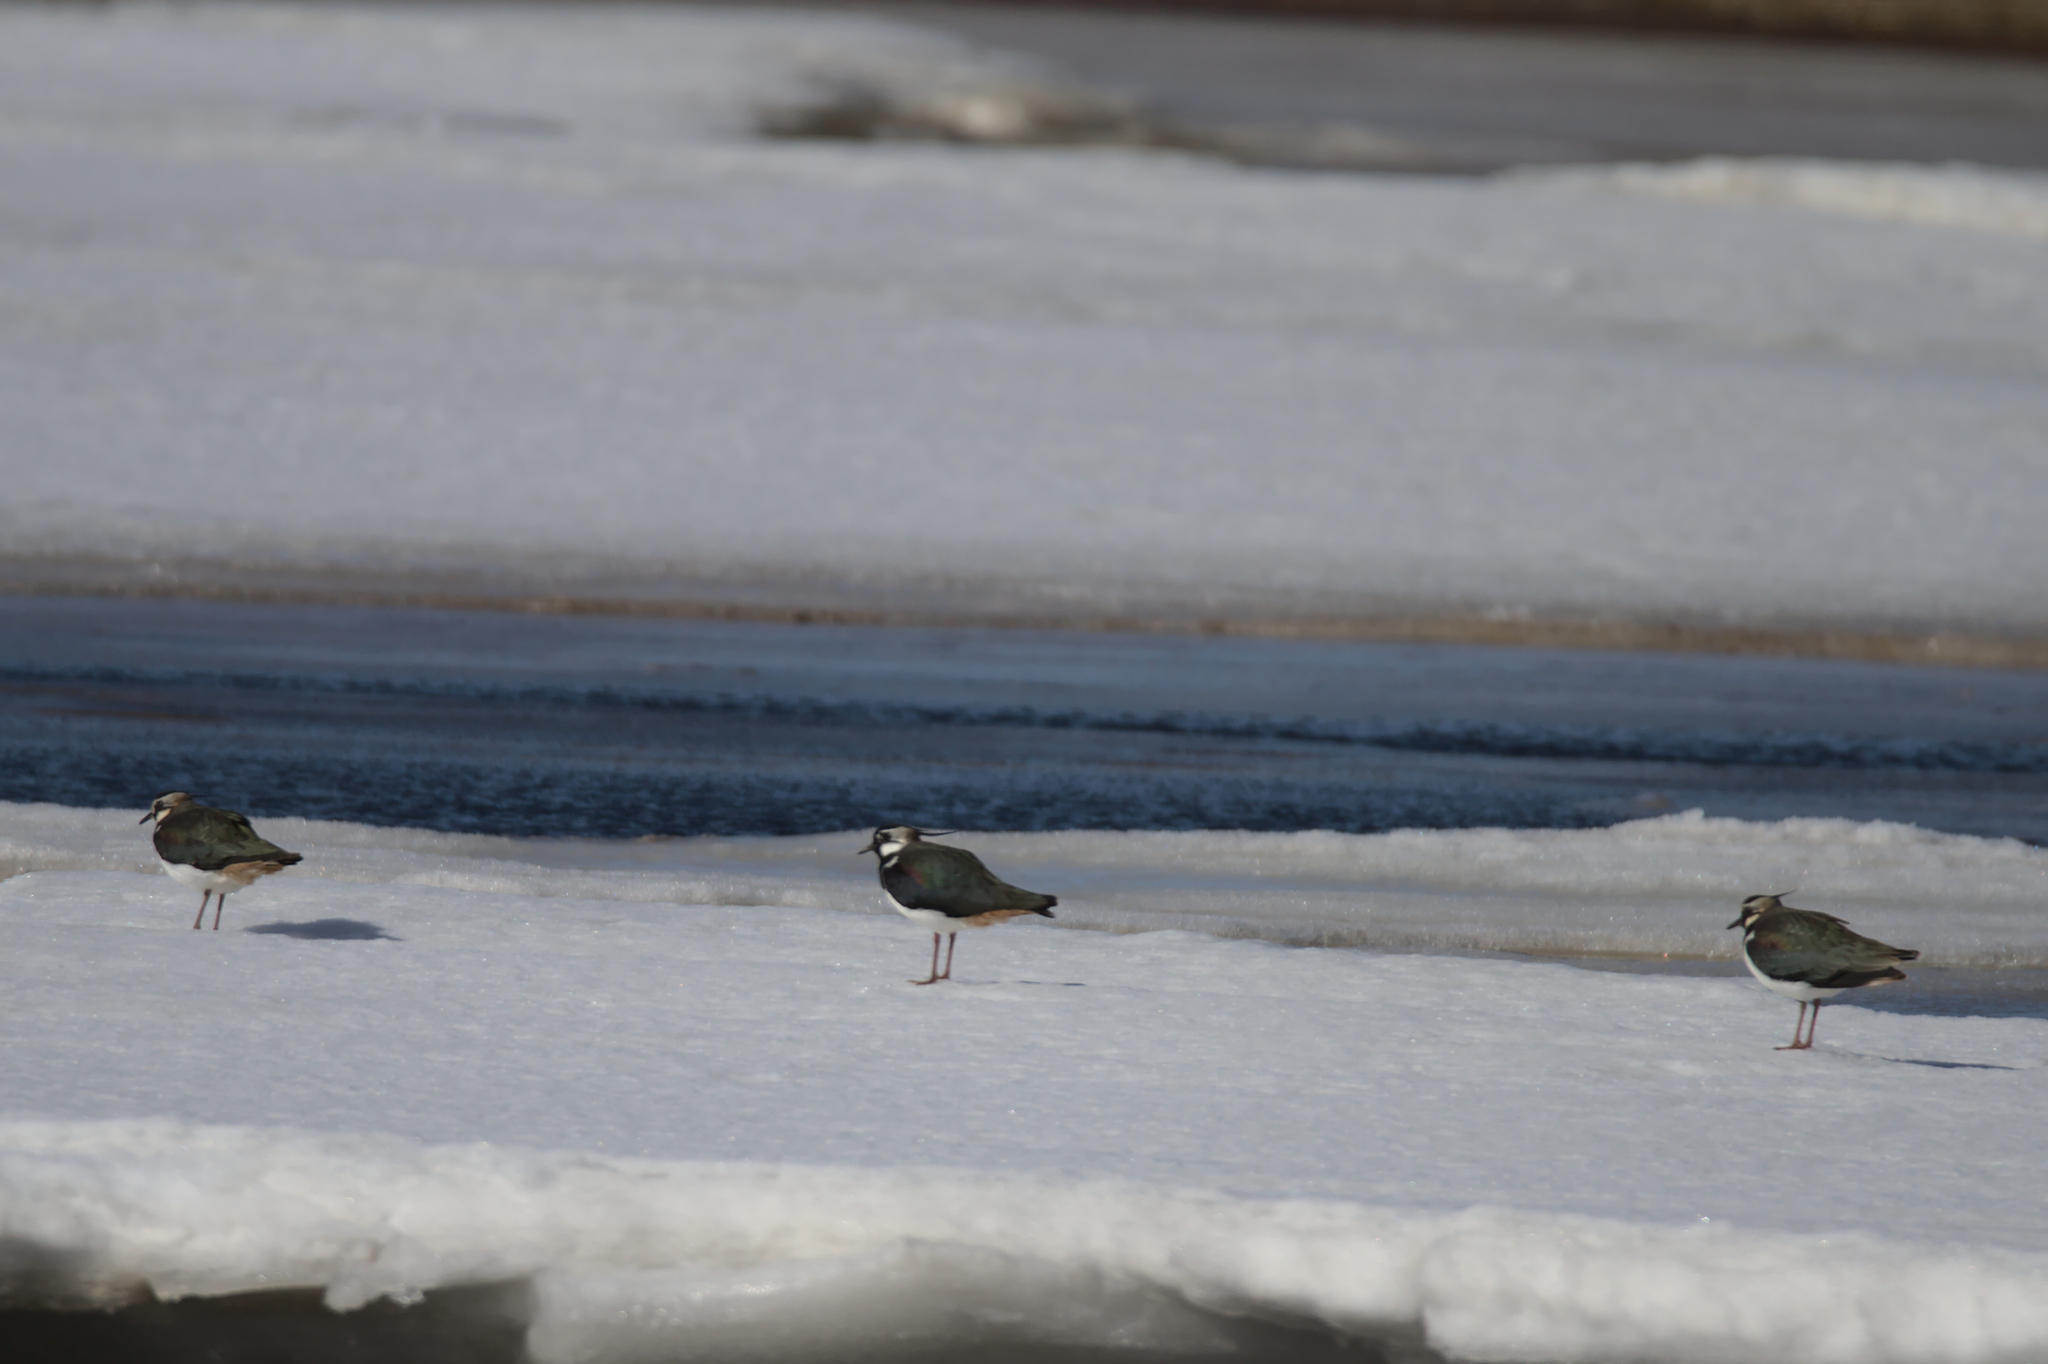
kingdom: Animalia
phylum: Chordata
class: Aves
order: Charadriiformes
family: Charadriidae
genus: Vanellus
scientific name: Vanellus vanellus
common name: Northern lapwing
